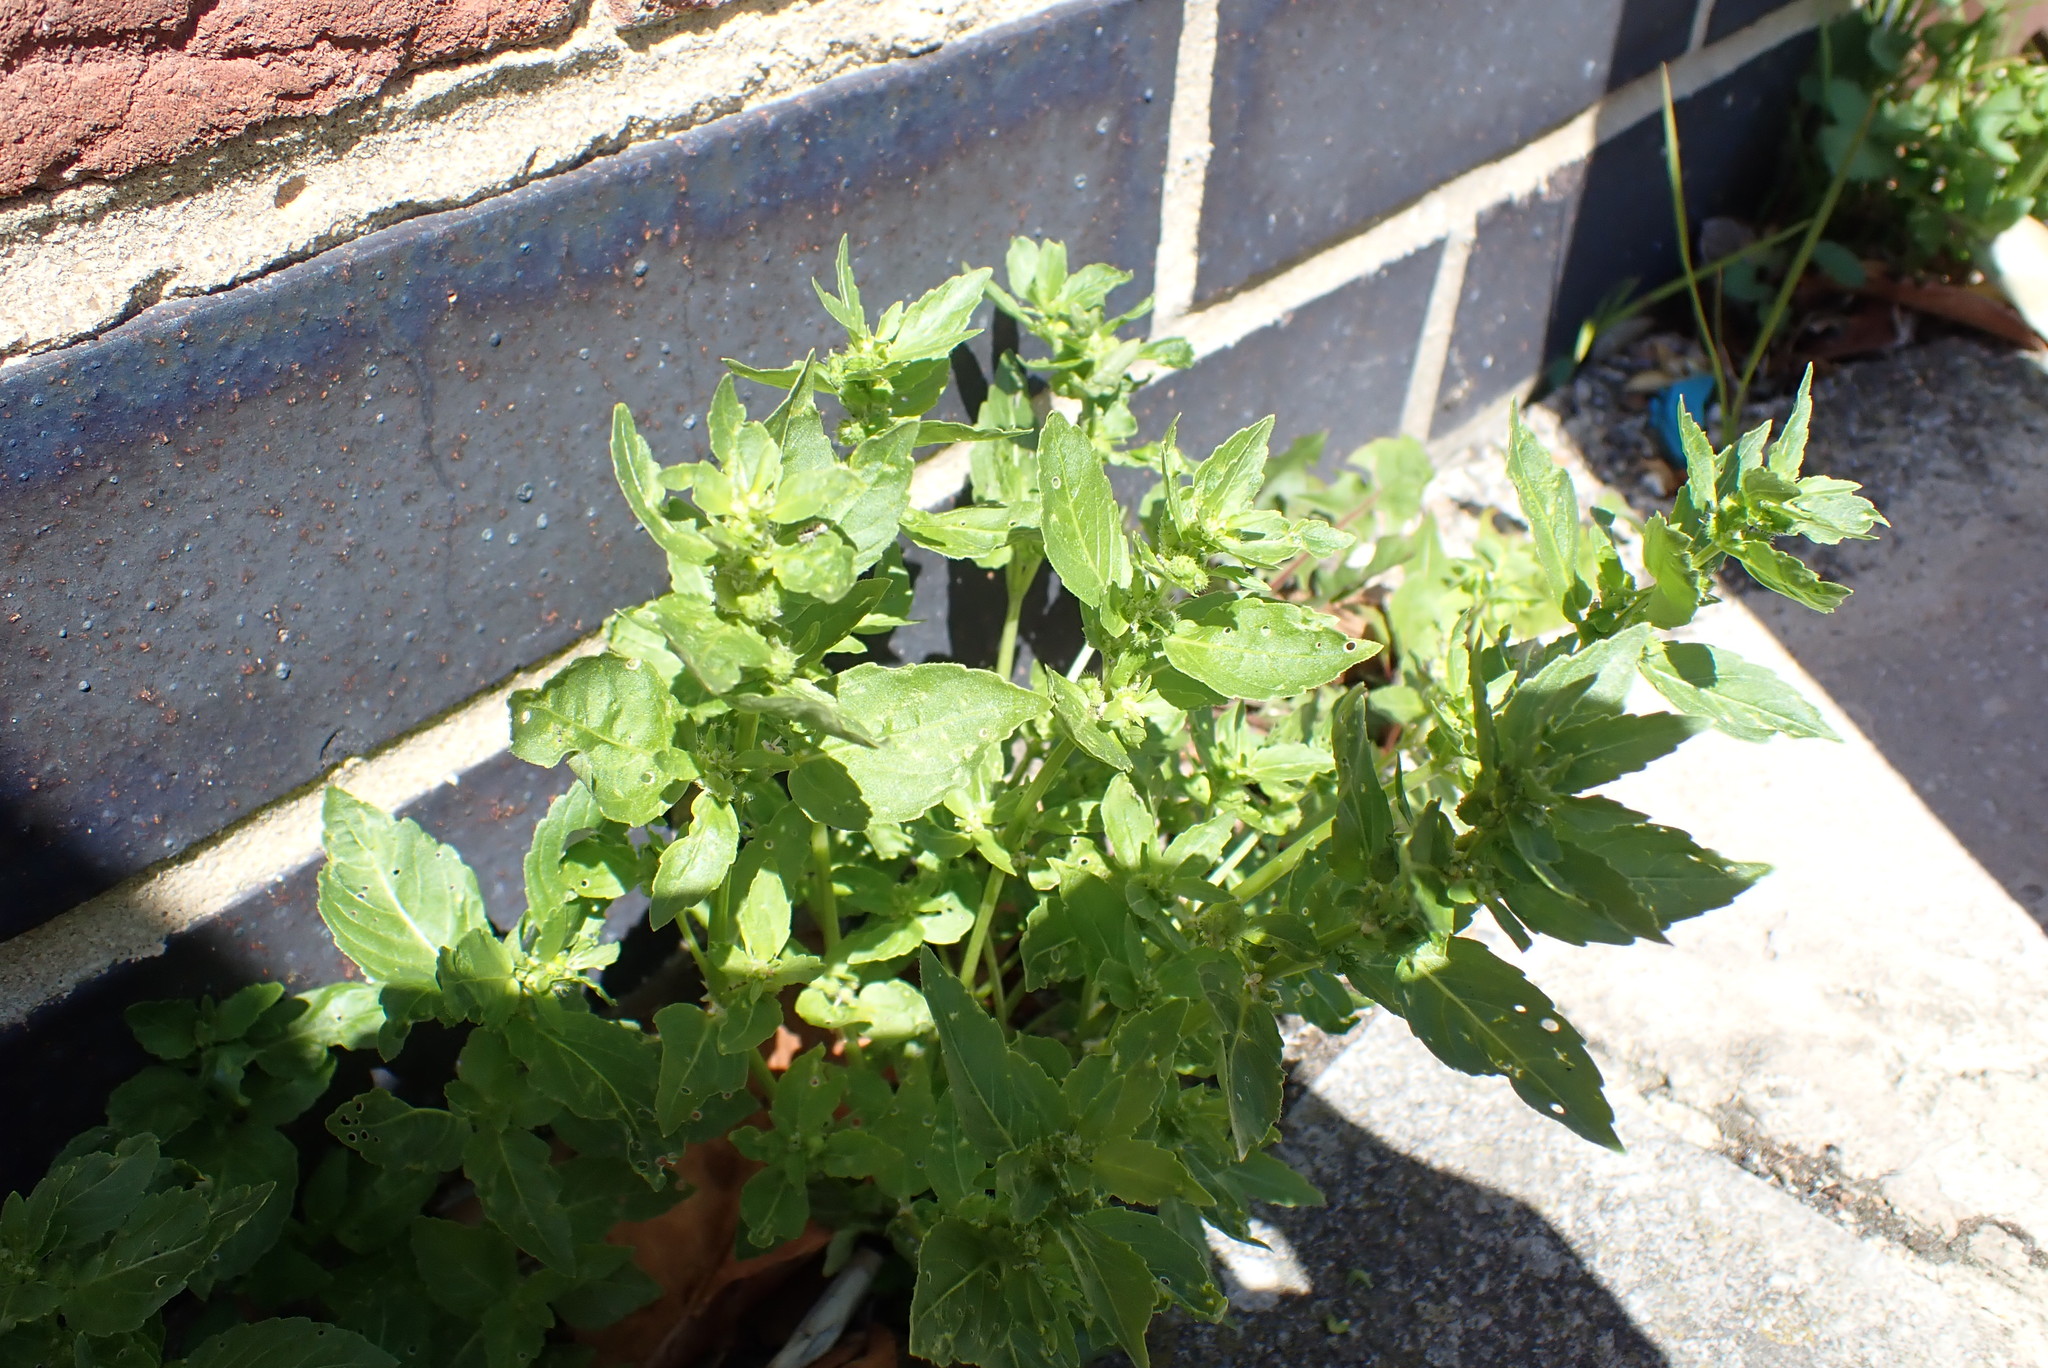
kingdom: Plantae
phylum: Tracheophyta
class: Magnoliopsida
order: Malpighiales
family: Euphorbiaceae
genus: Mercurialis
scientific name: Mercurialis annua
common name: Annual mercury
